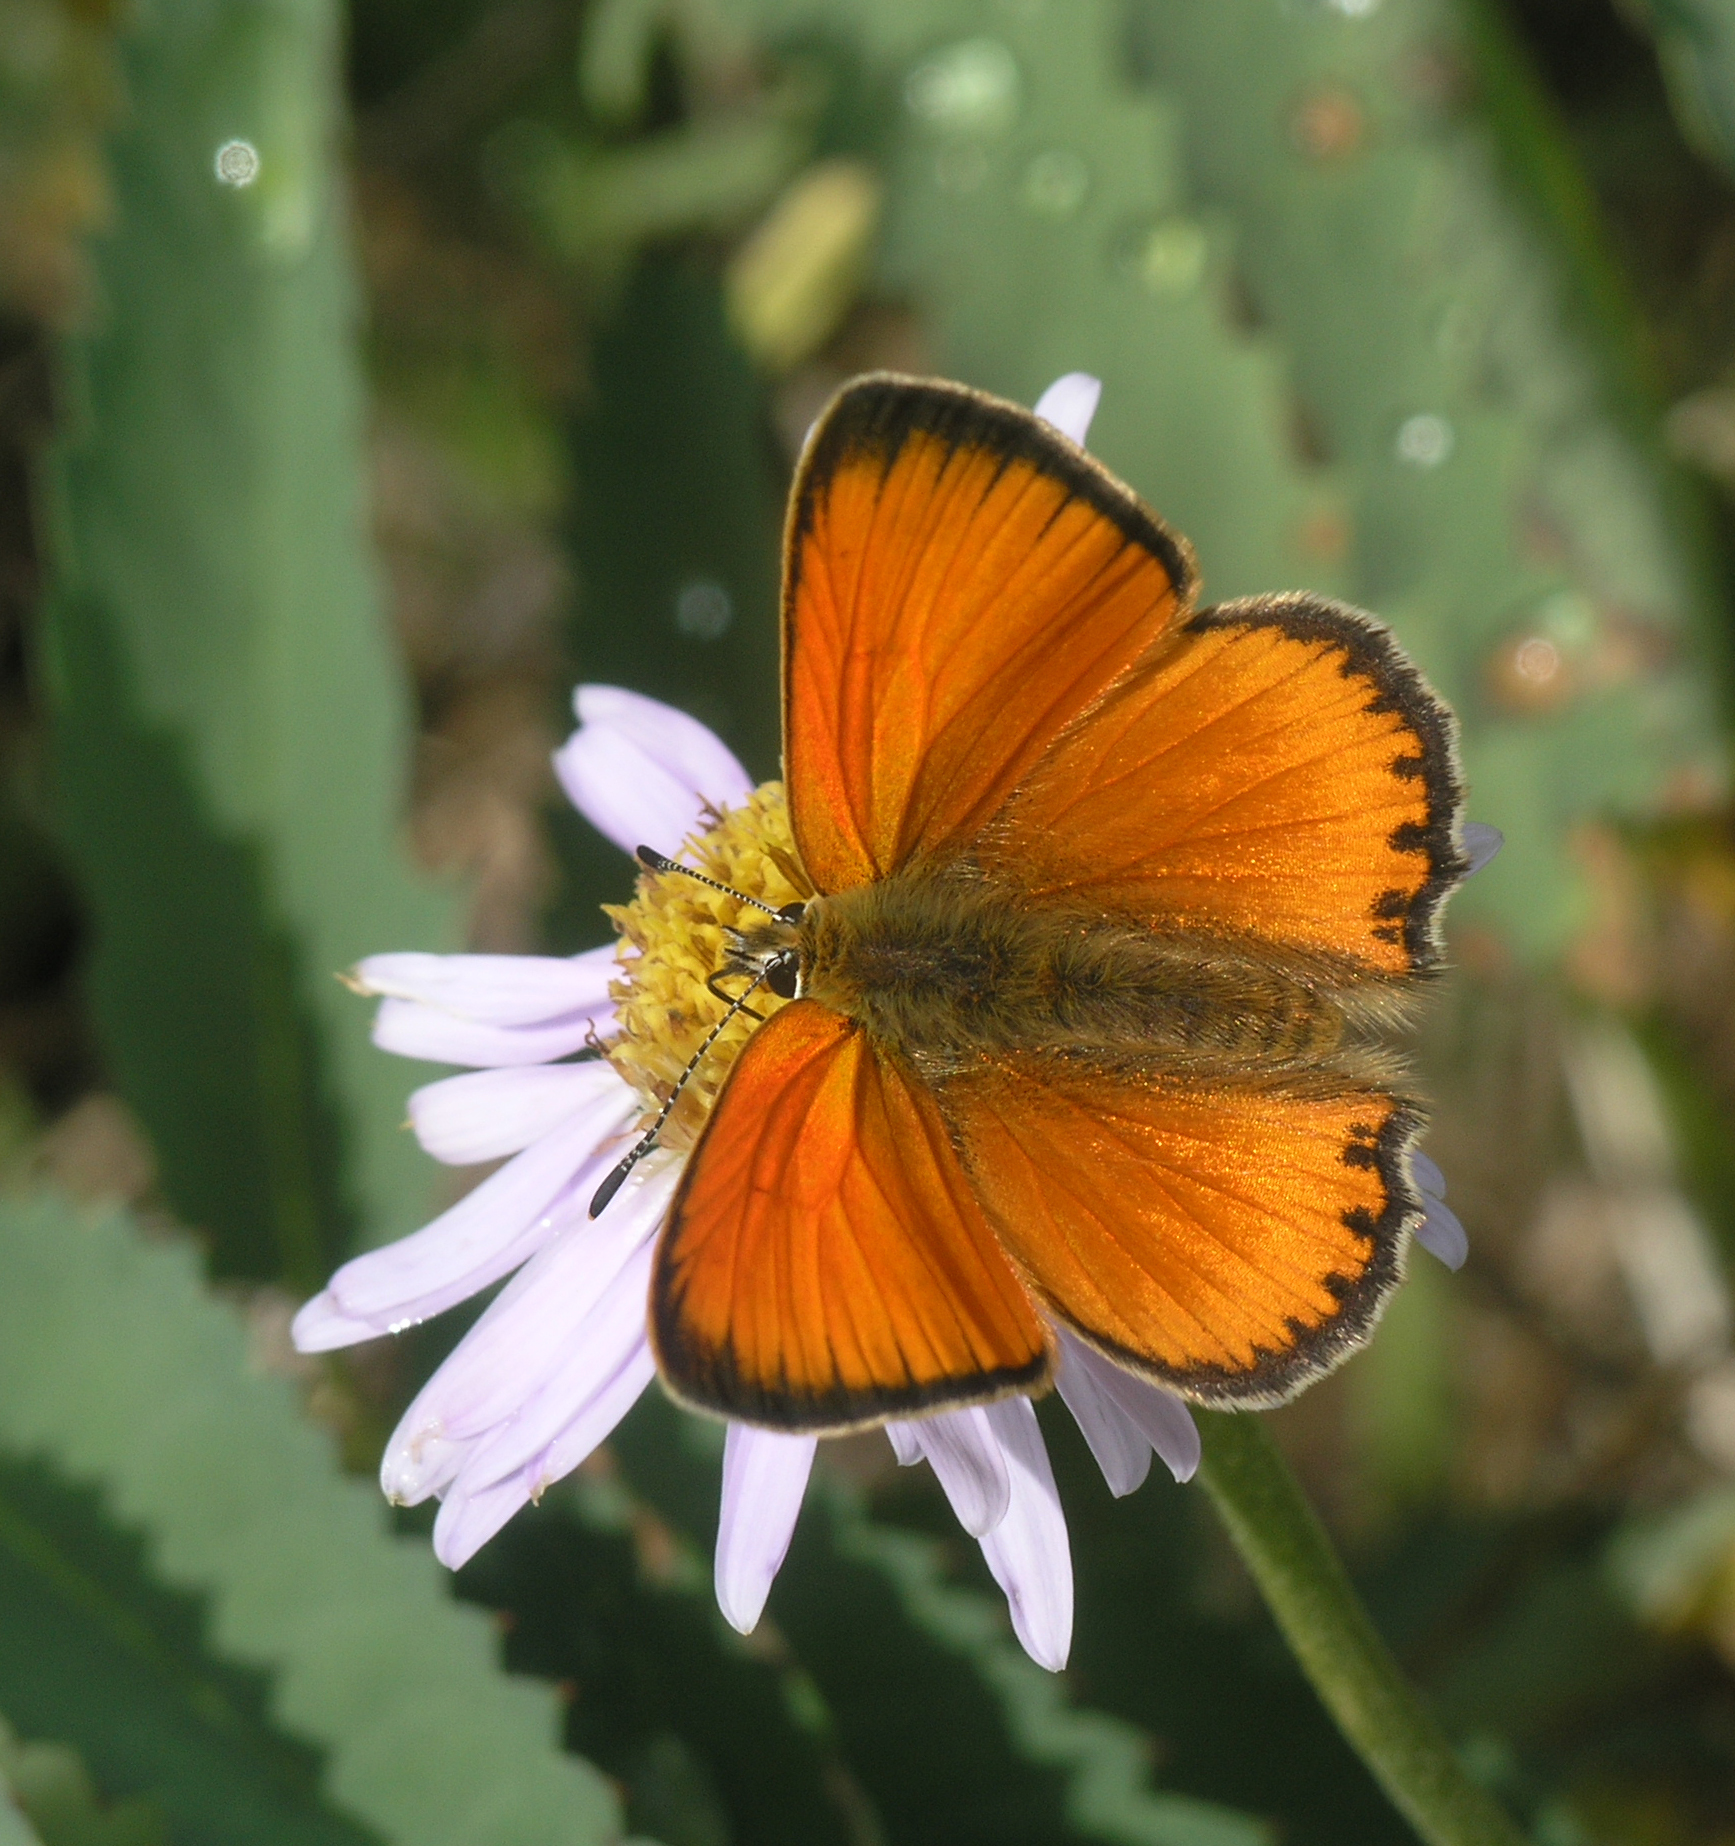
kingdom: Animalia
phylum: Arthropoda
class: Insecta
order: Lepidoptera
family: Lycaenidae
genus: Lycaena
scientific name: Lycaena virgaureae
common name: Scarce copper
